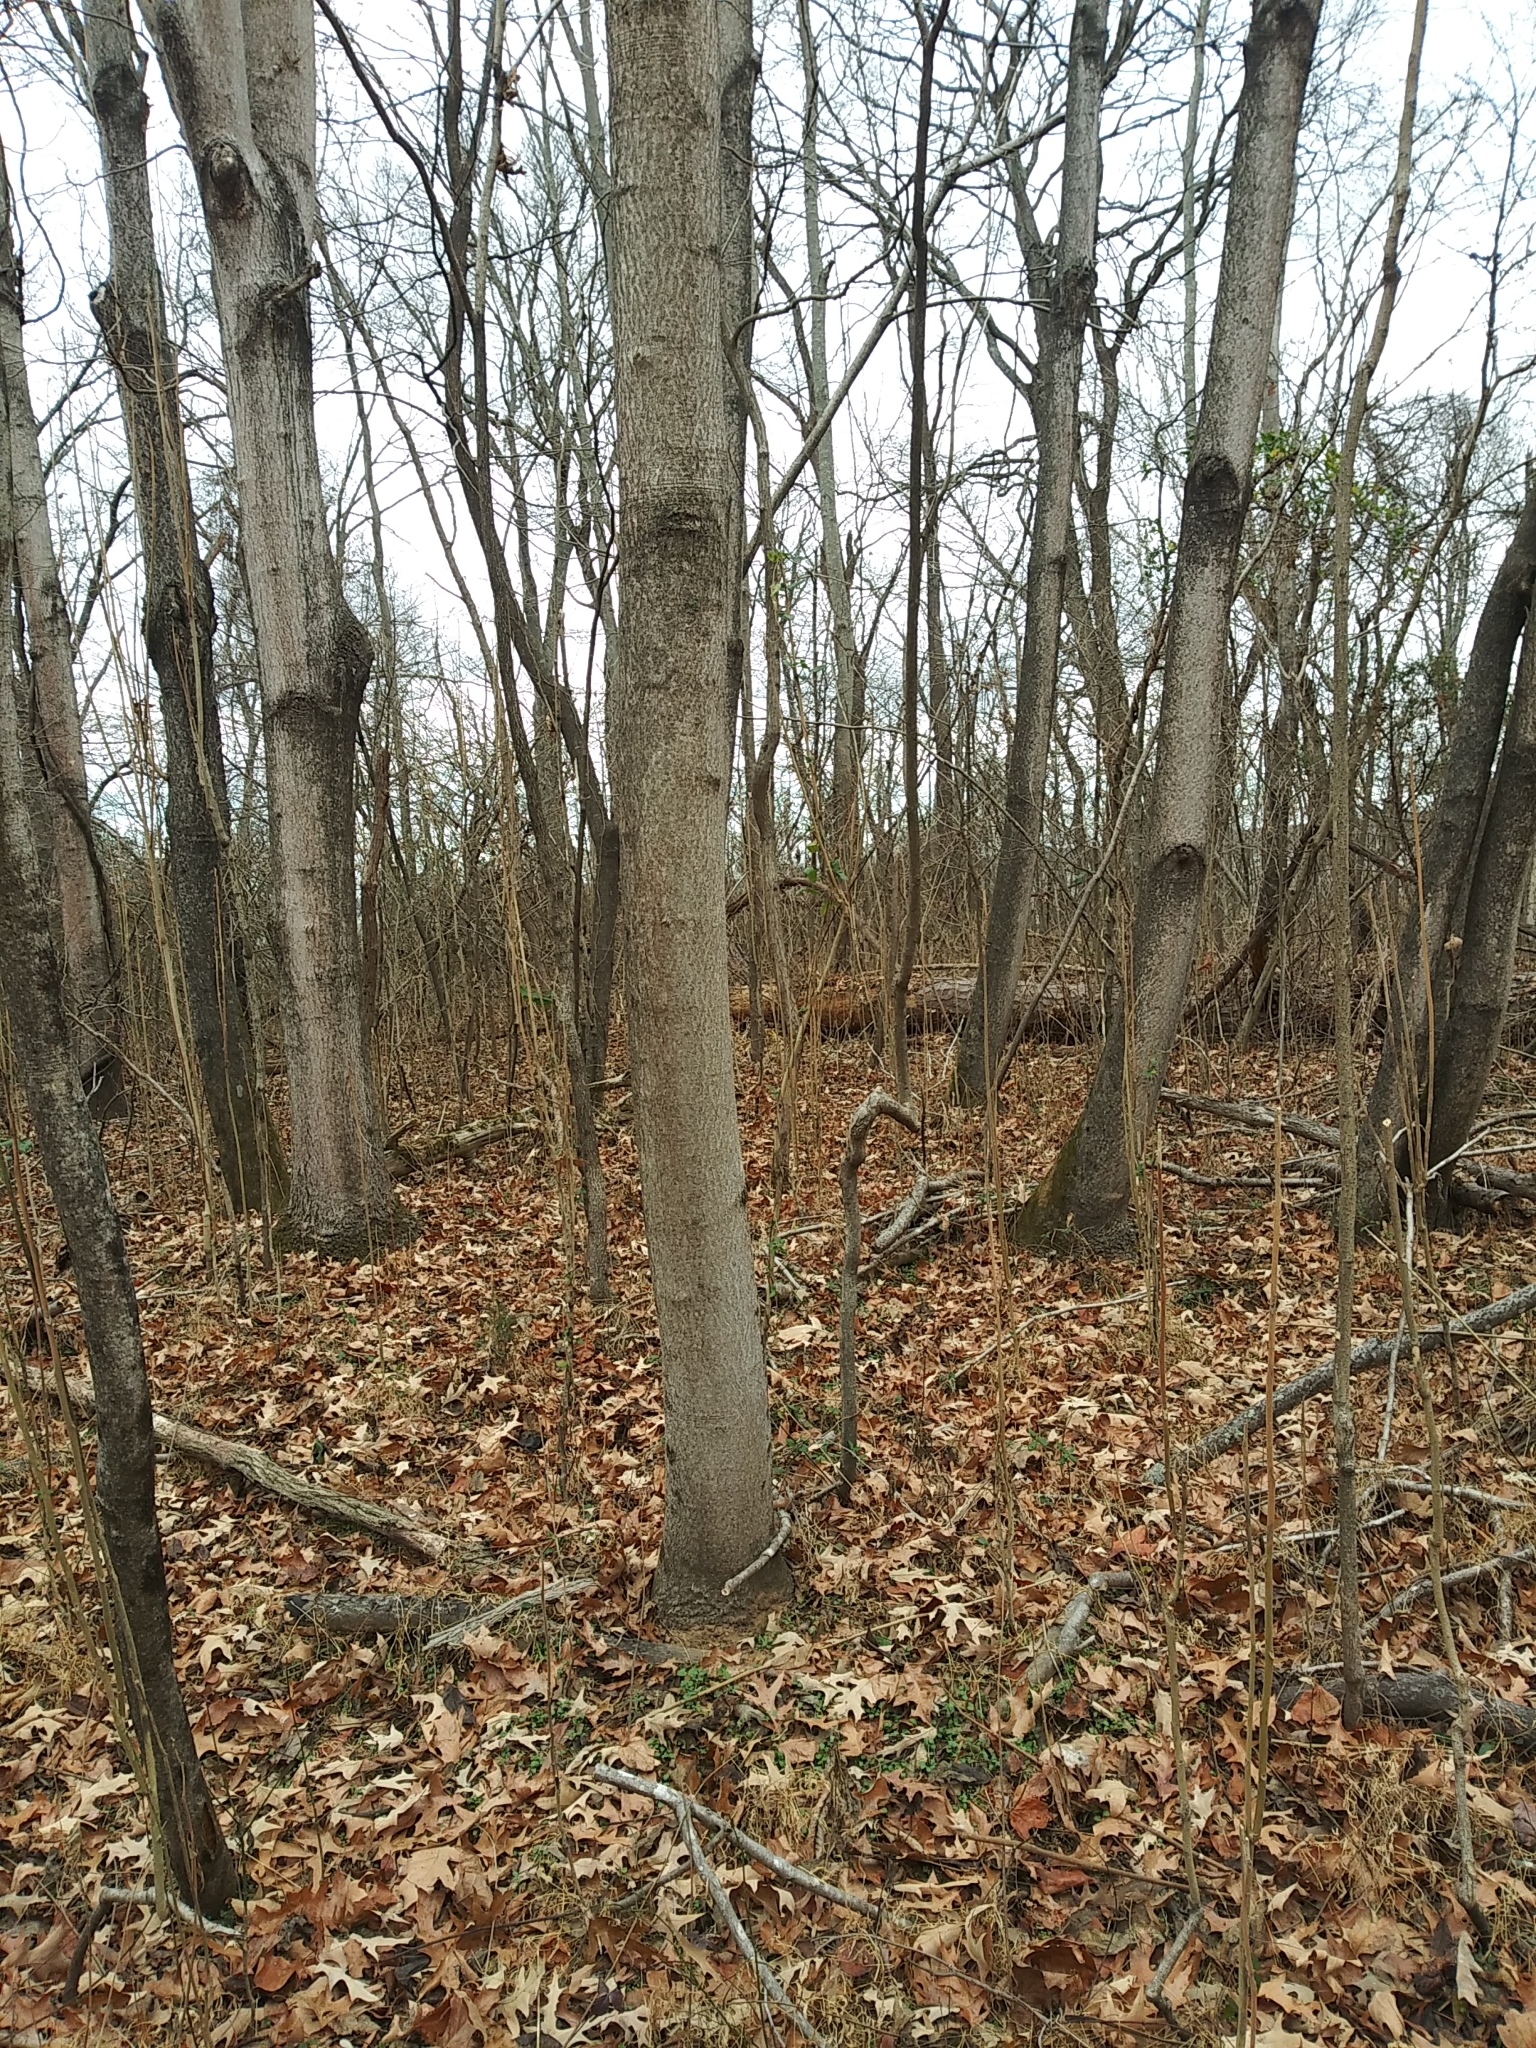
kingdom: Plantae
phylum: Tracheophyta
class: Magnoliopsida
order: Sapindales
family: Simaroubaceae
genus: Ailanthus
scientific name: Ailanthus altissima
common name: Tree-of-heaven
